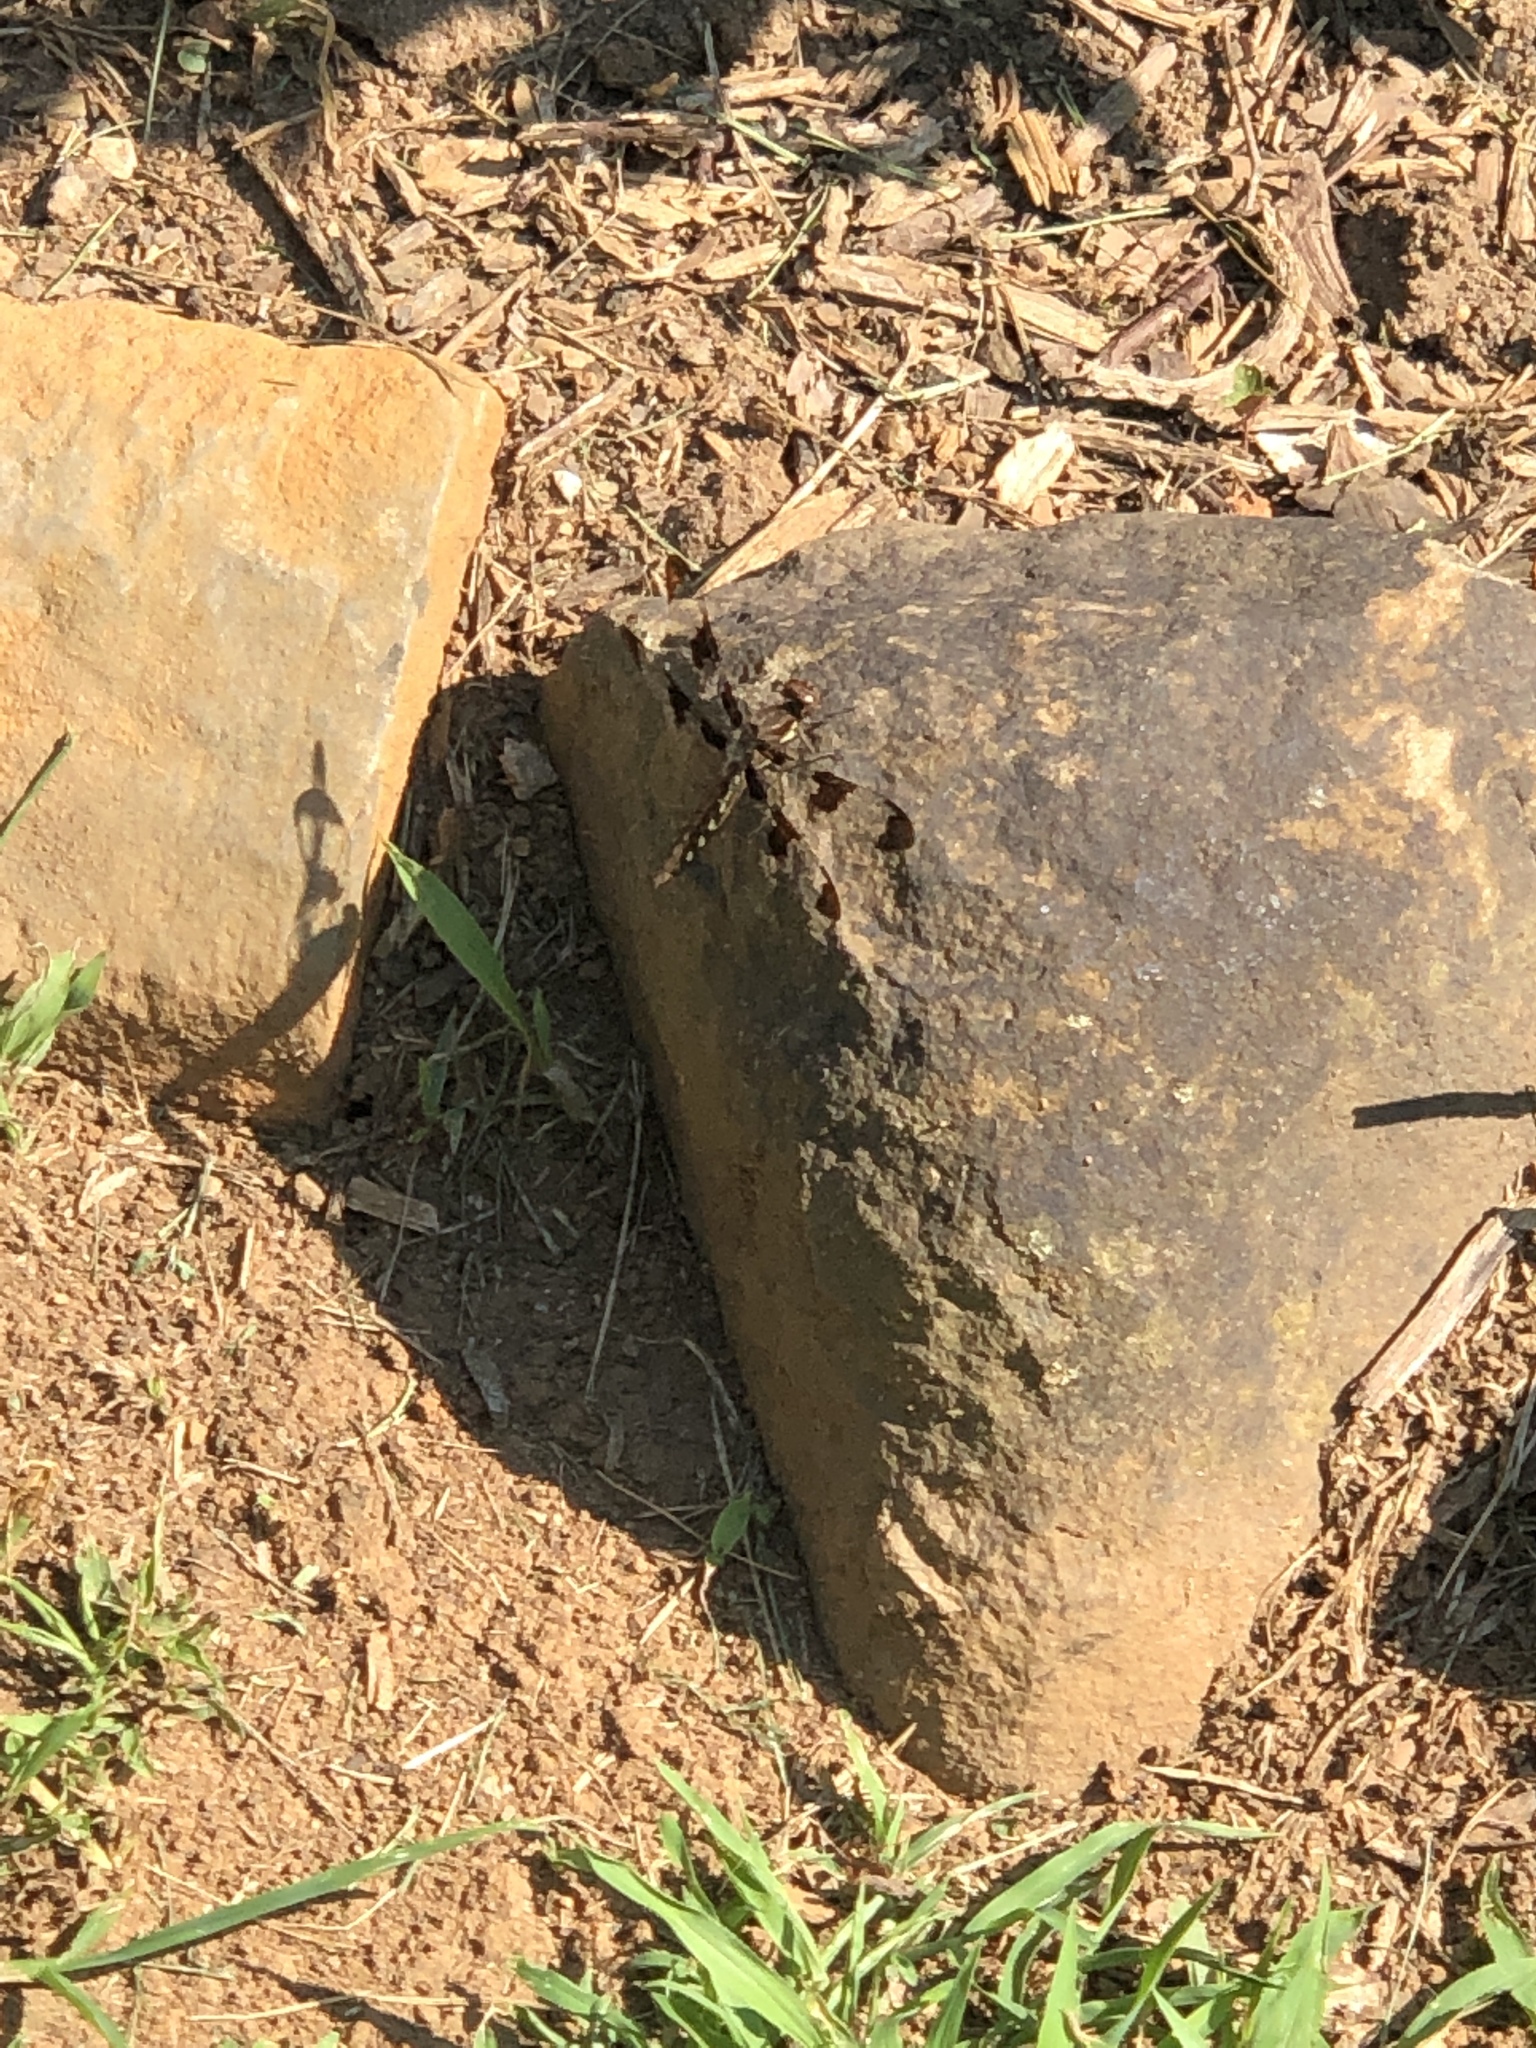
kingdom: Animalia
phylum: Arthropoda
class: Insecta
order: Odonata
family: Libellulidae
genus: Plathemis
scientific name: Plathemis lydia
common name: Common whitetail
